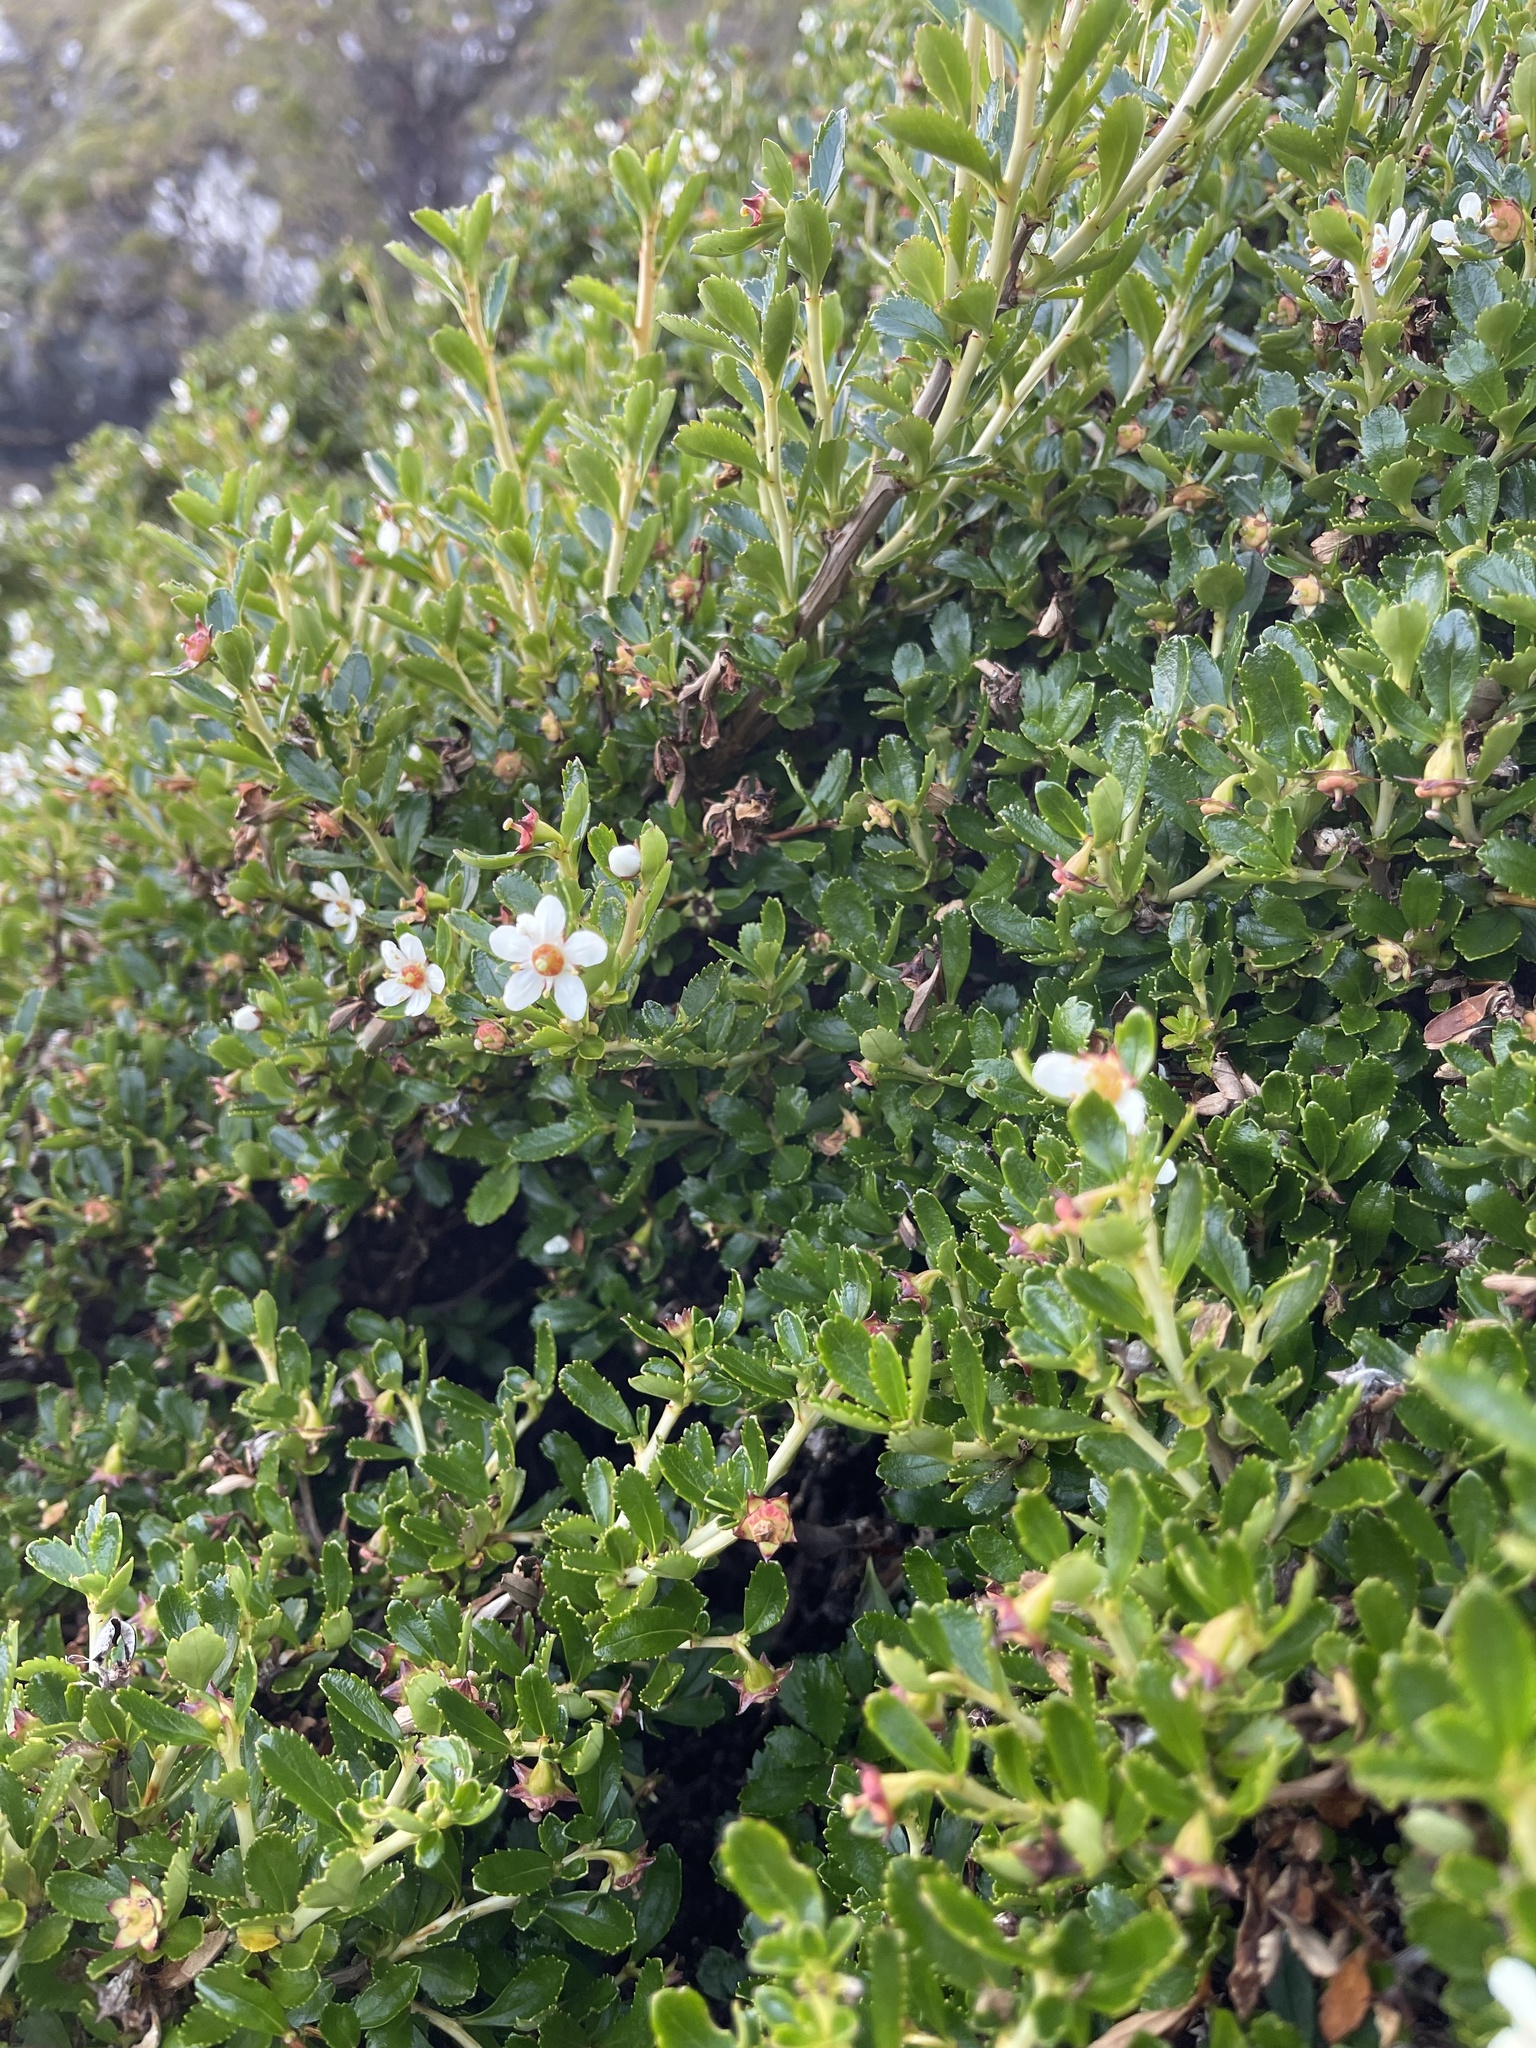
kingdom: Plantae
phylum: Tracheophyta
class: Magnoliopsida
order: Escalloniales
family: Escalloniaceae
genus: Escallonia
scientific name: Escallonia serrata
